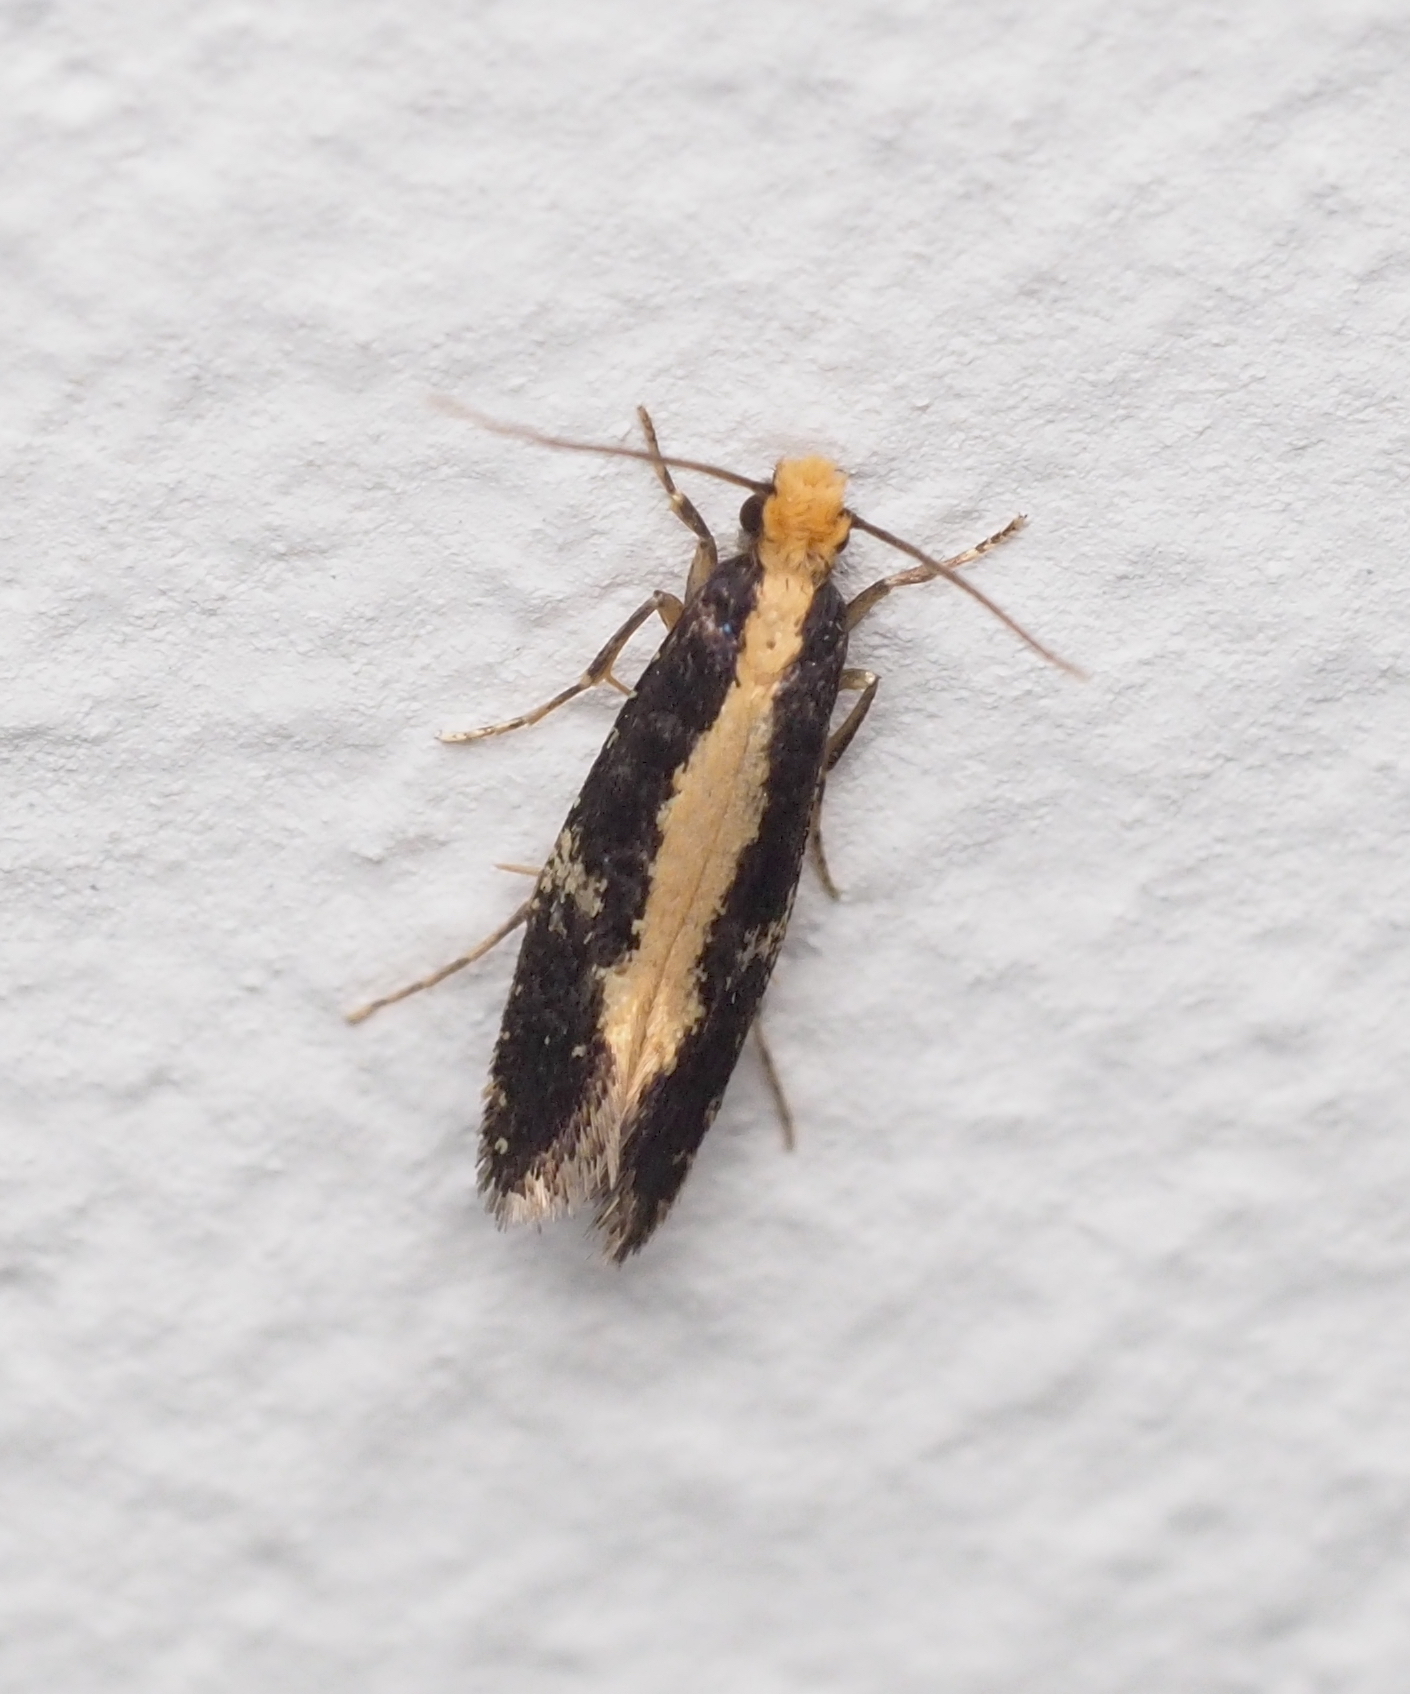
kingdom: Animalia
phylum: Arthropoda
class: Insecta
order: Lepidoptera
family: Tineidae
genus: Monopis
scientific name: Monopis obviella
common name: Tineid moth
